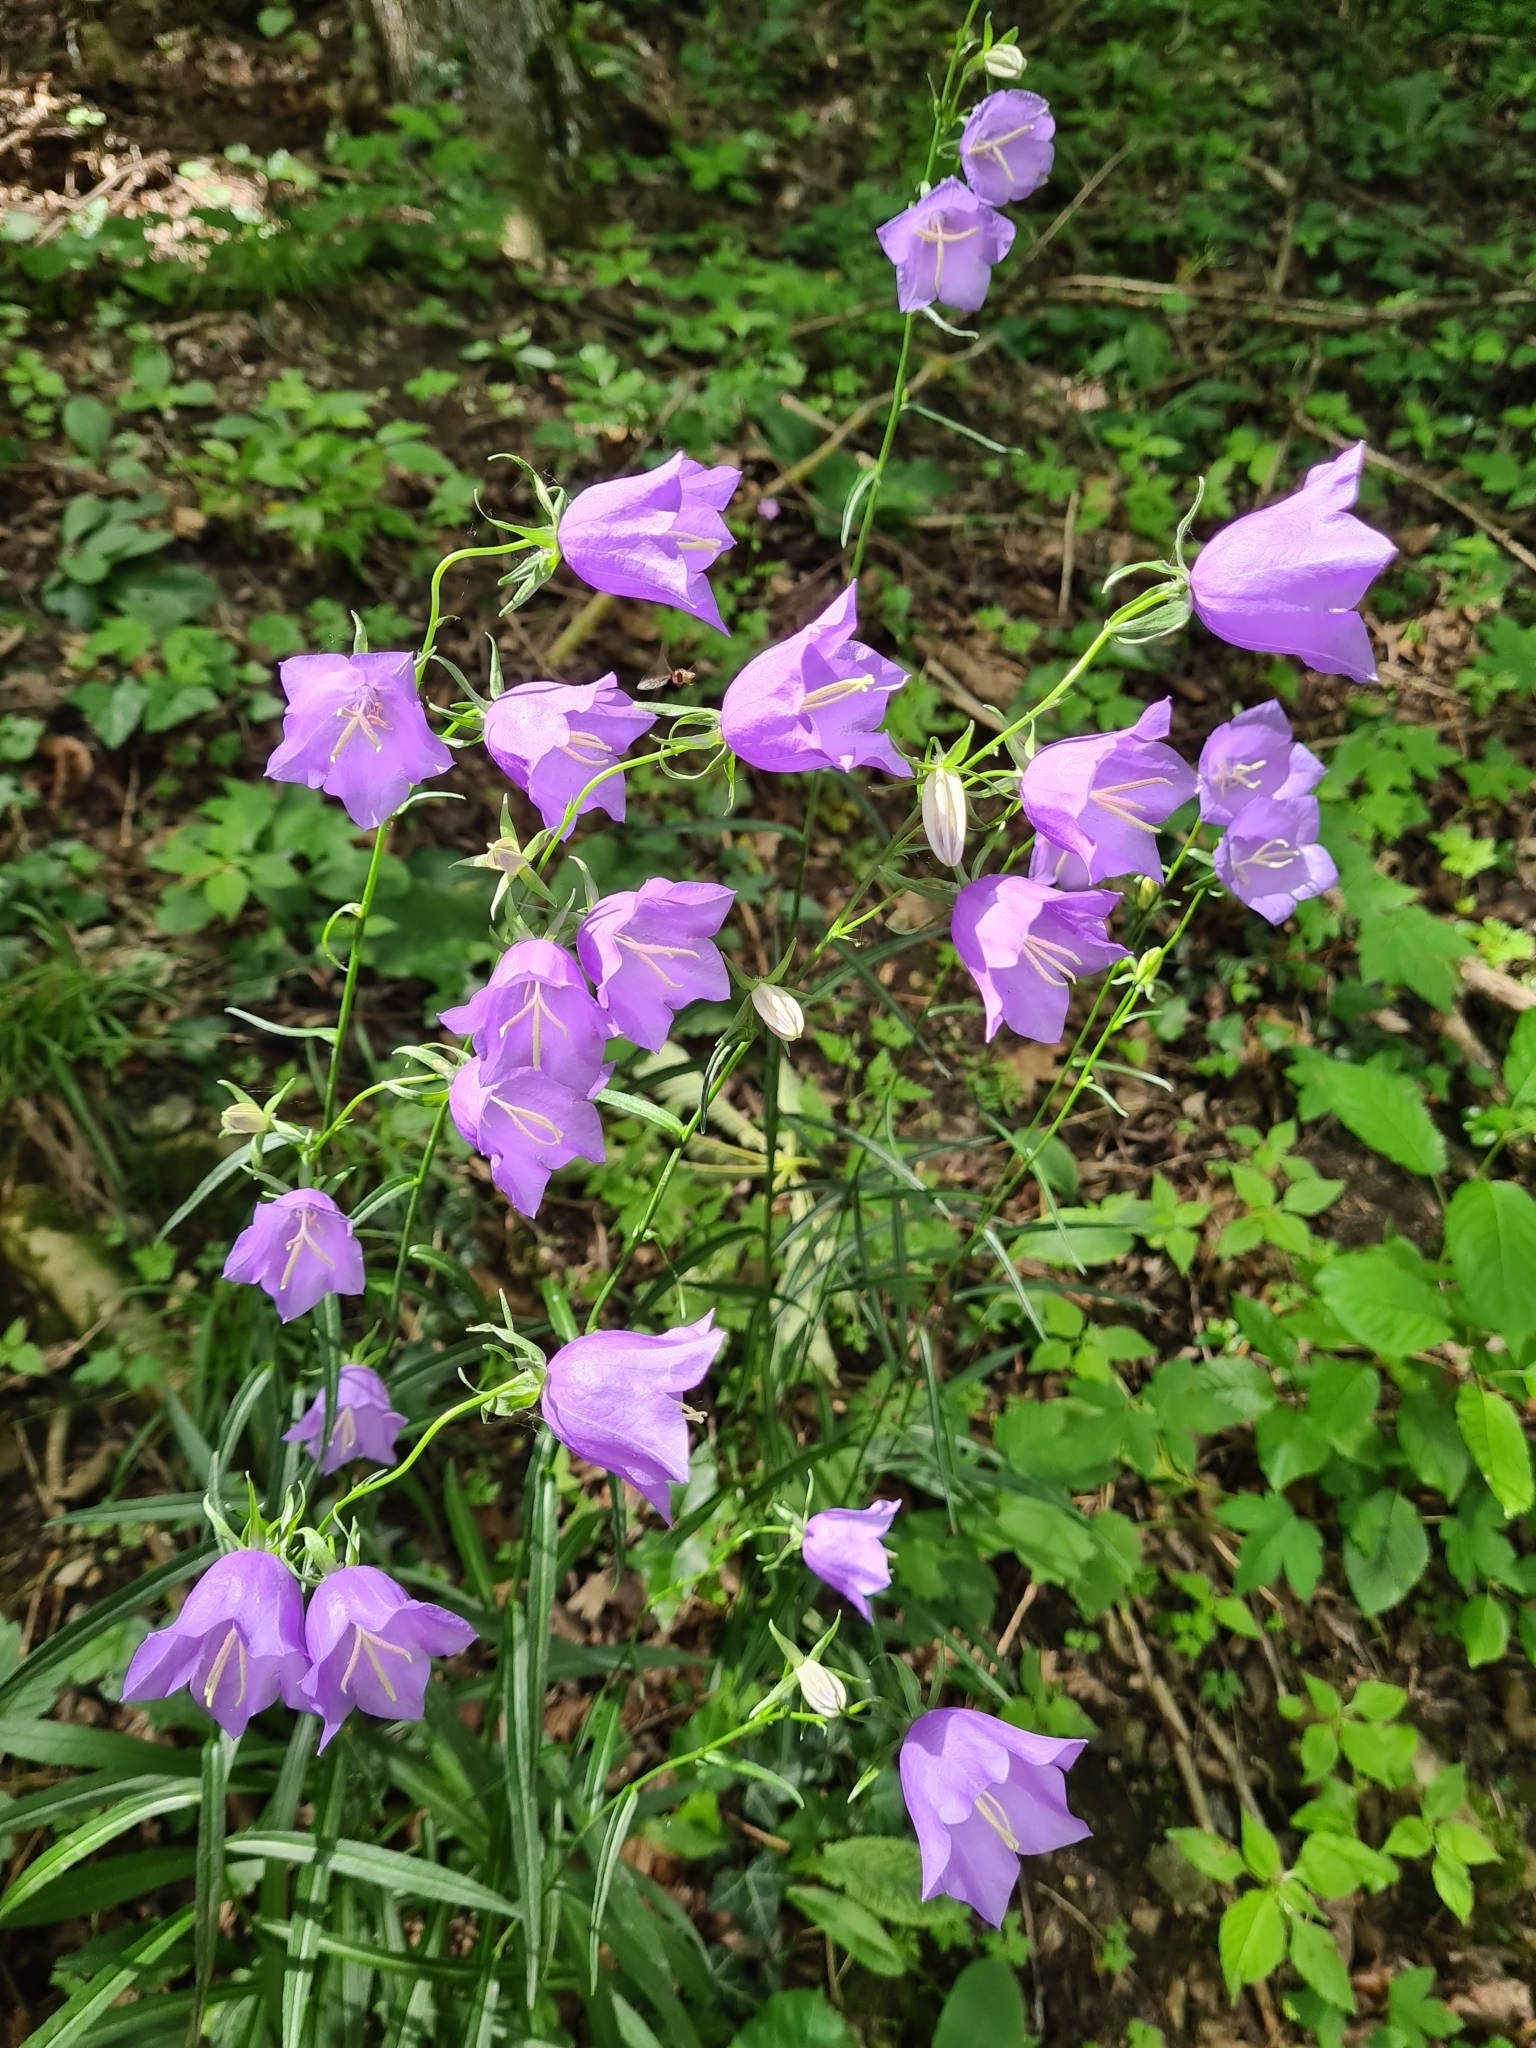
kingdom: Plantae
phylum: Tracheophyta
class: Magnoliopsida
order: Asterales
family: Campanulaceae
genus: Campanula
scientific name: Campanula persicifolia
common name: Peach-leaved bellflower
